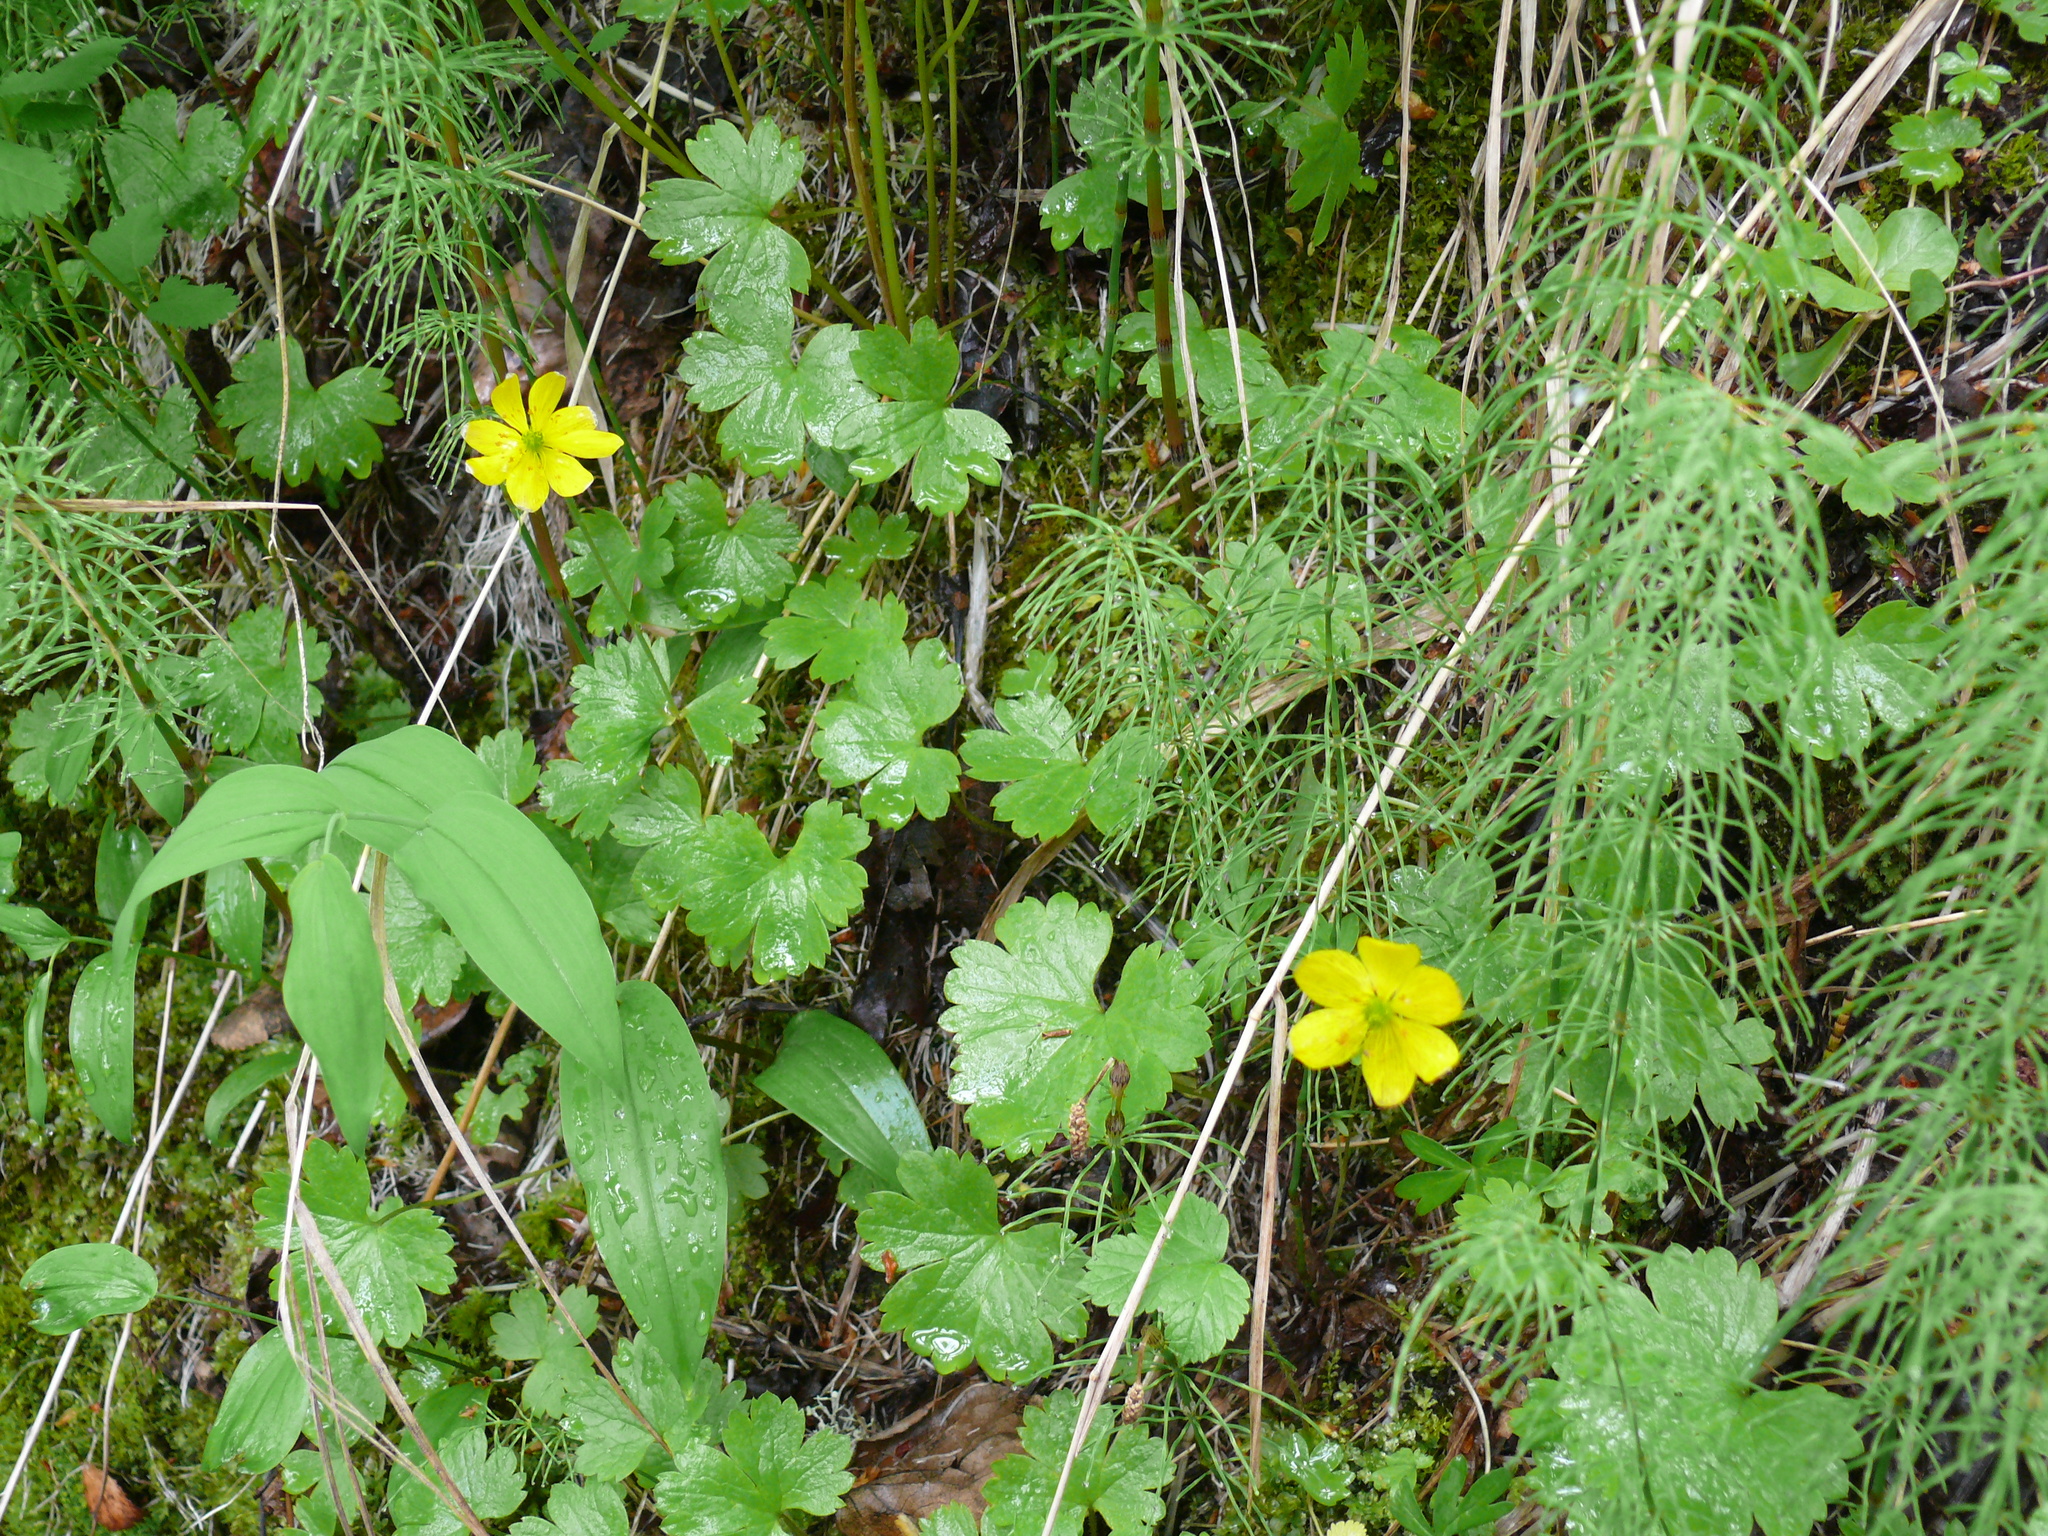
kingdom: Plantae
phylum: Tracheophyta
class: Magnoliopsida
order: Ranunculales
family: Ranunculaceae
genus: Anemonastrum
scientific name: Anemonastrum richardsonii
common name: Richardson's anemone
